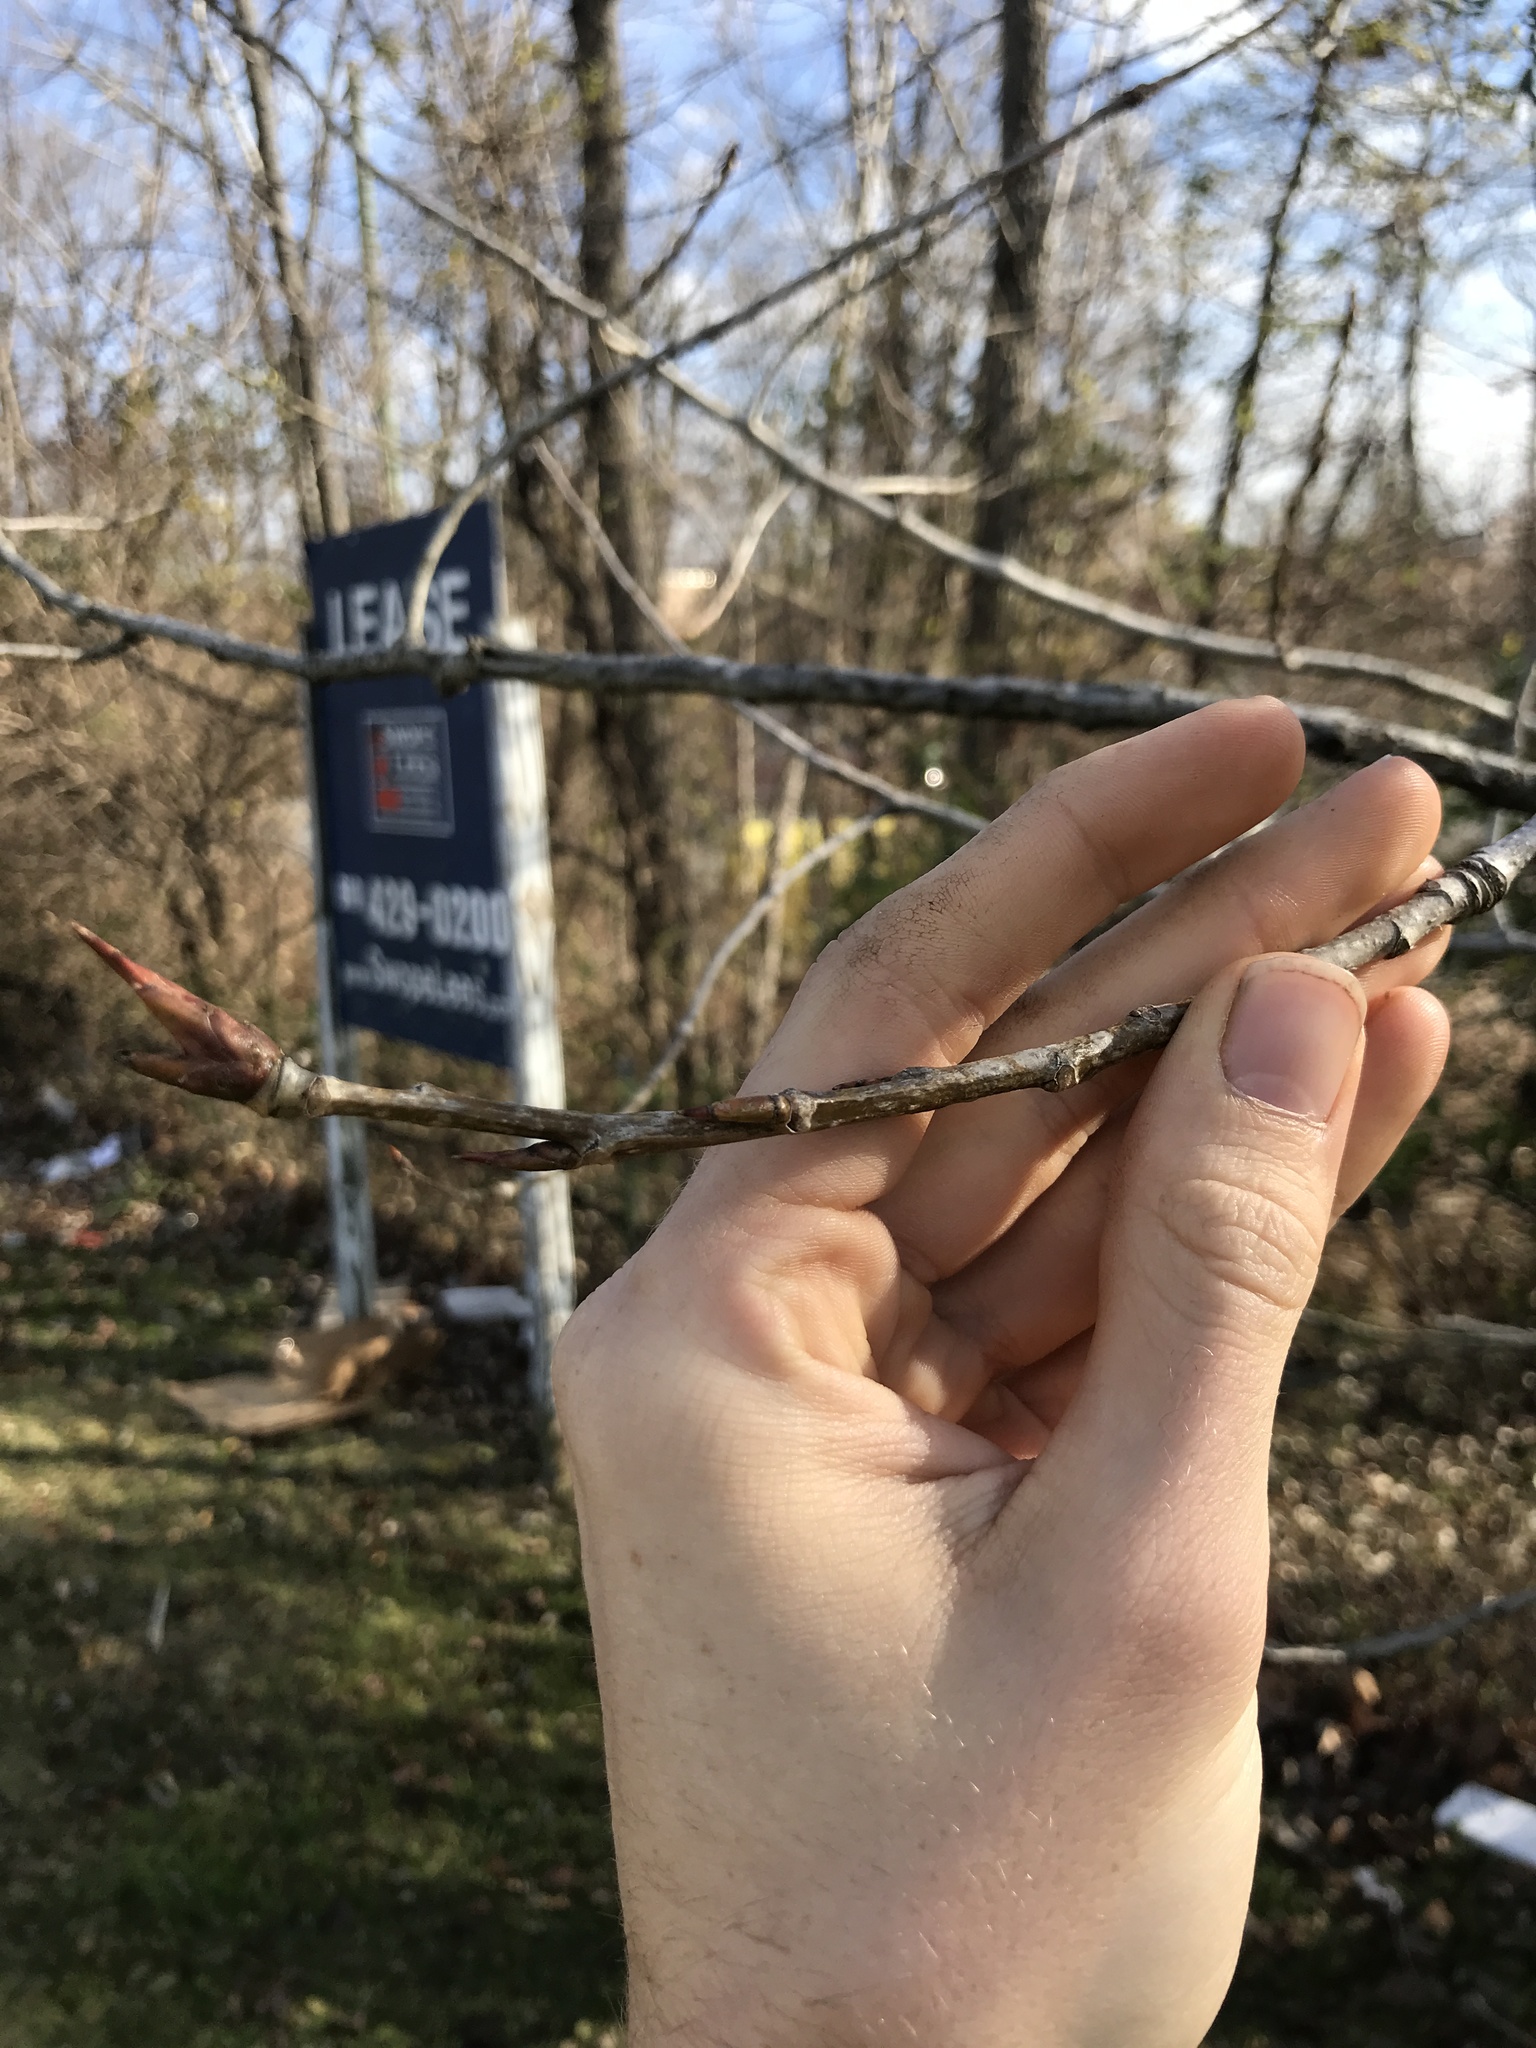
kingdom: Plantae
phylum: Tracheophyta
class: Magnoliopsida
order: Malpighiales
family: Salicaceae
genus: Populus
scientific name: Populus deltoides
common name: Eastern cottonwood
